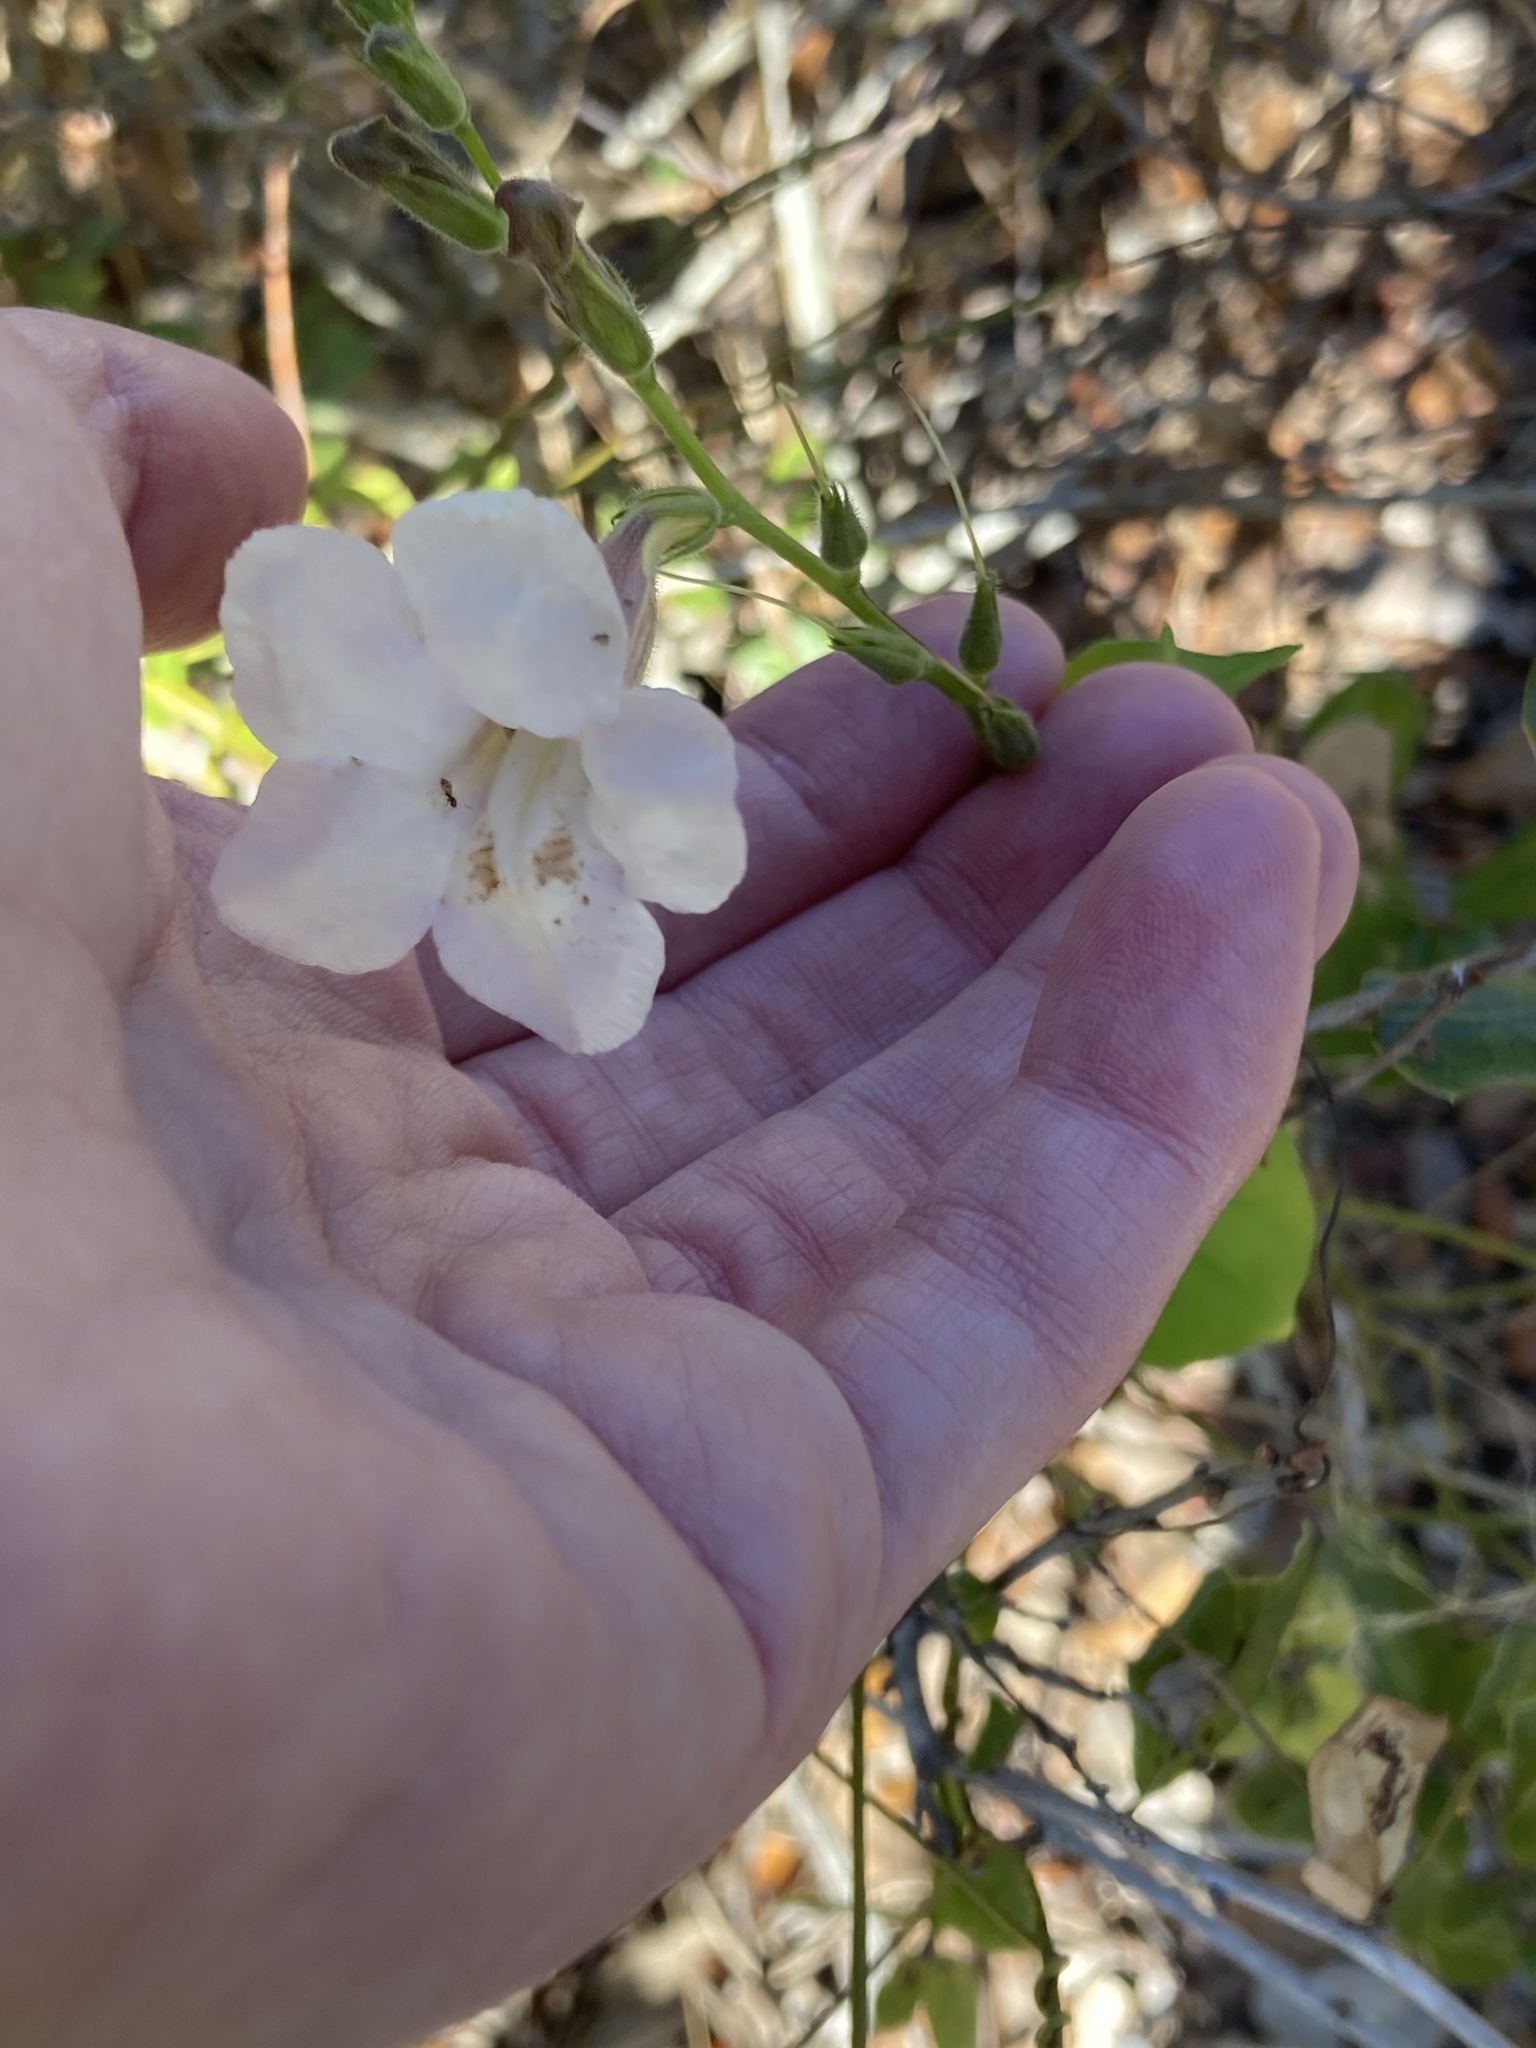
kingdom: Plantae
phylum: Tracheophyta
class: Magnoliopsida
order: Lamiales
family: Acanthaceae
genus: Asystasia
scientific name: Asystasia gangetica
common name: Chinese violet
